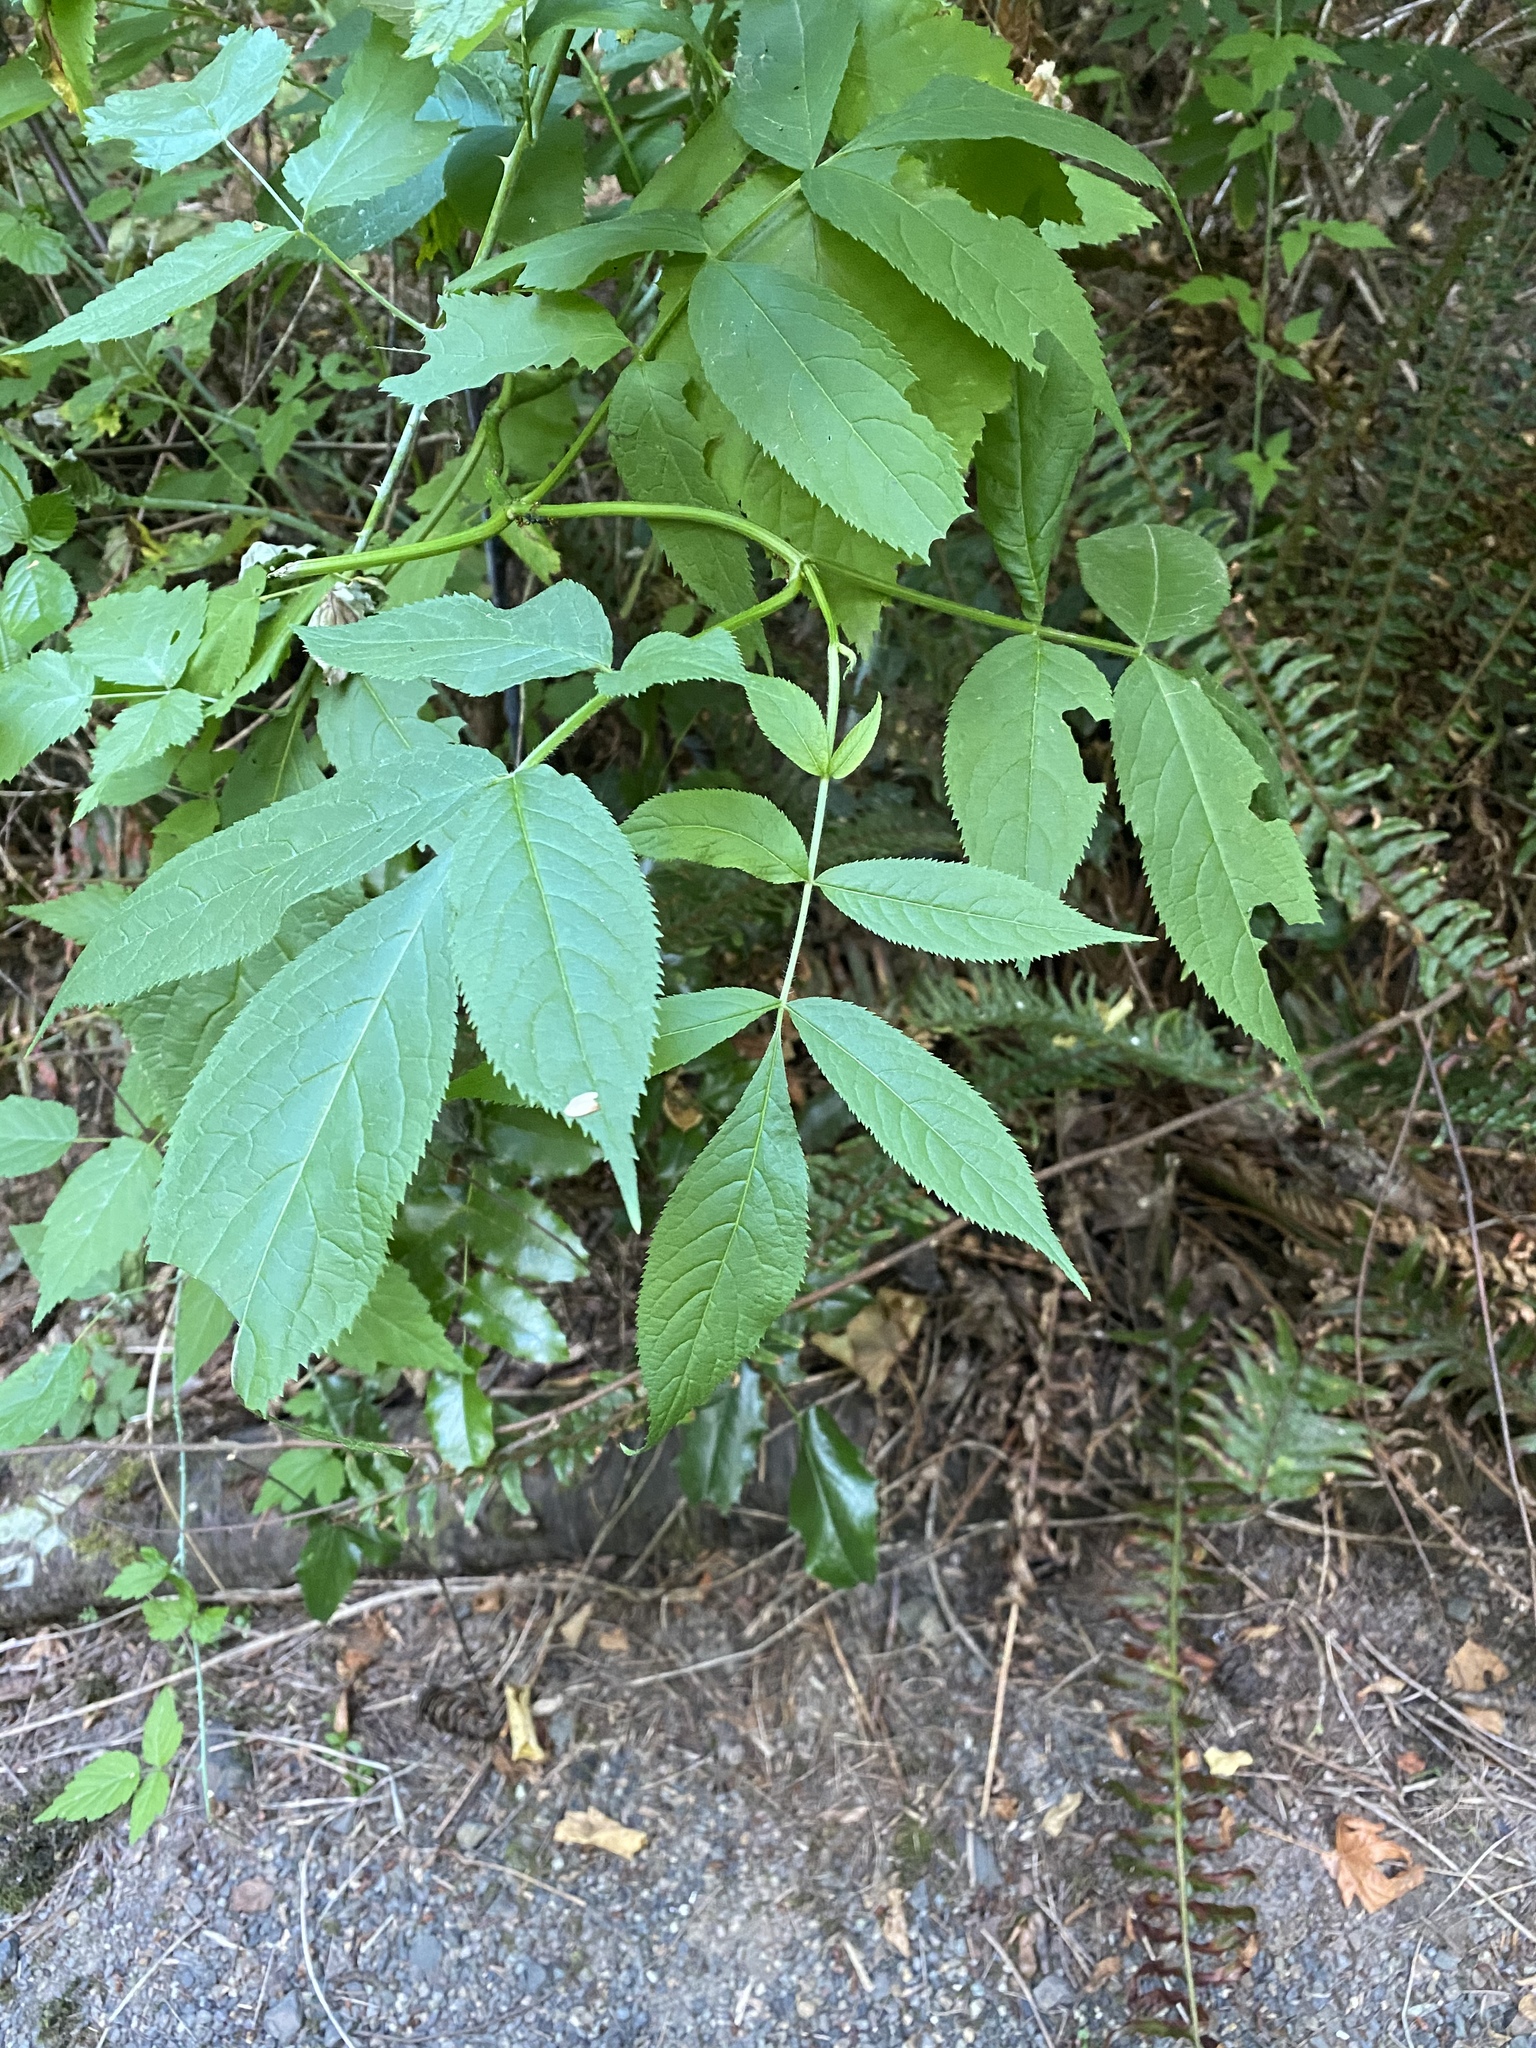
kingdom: Plantae
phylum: Tracheophyta
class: Magnoliopsida
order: Dipsacales
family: Viburnaceae
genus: Sambucus
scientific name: Sambucus racemosa
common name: Red-berried elder
